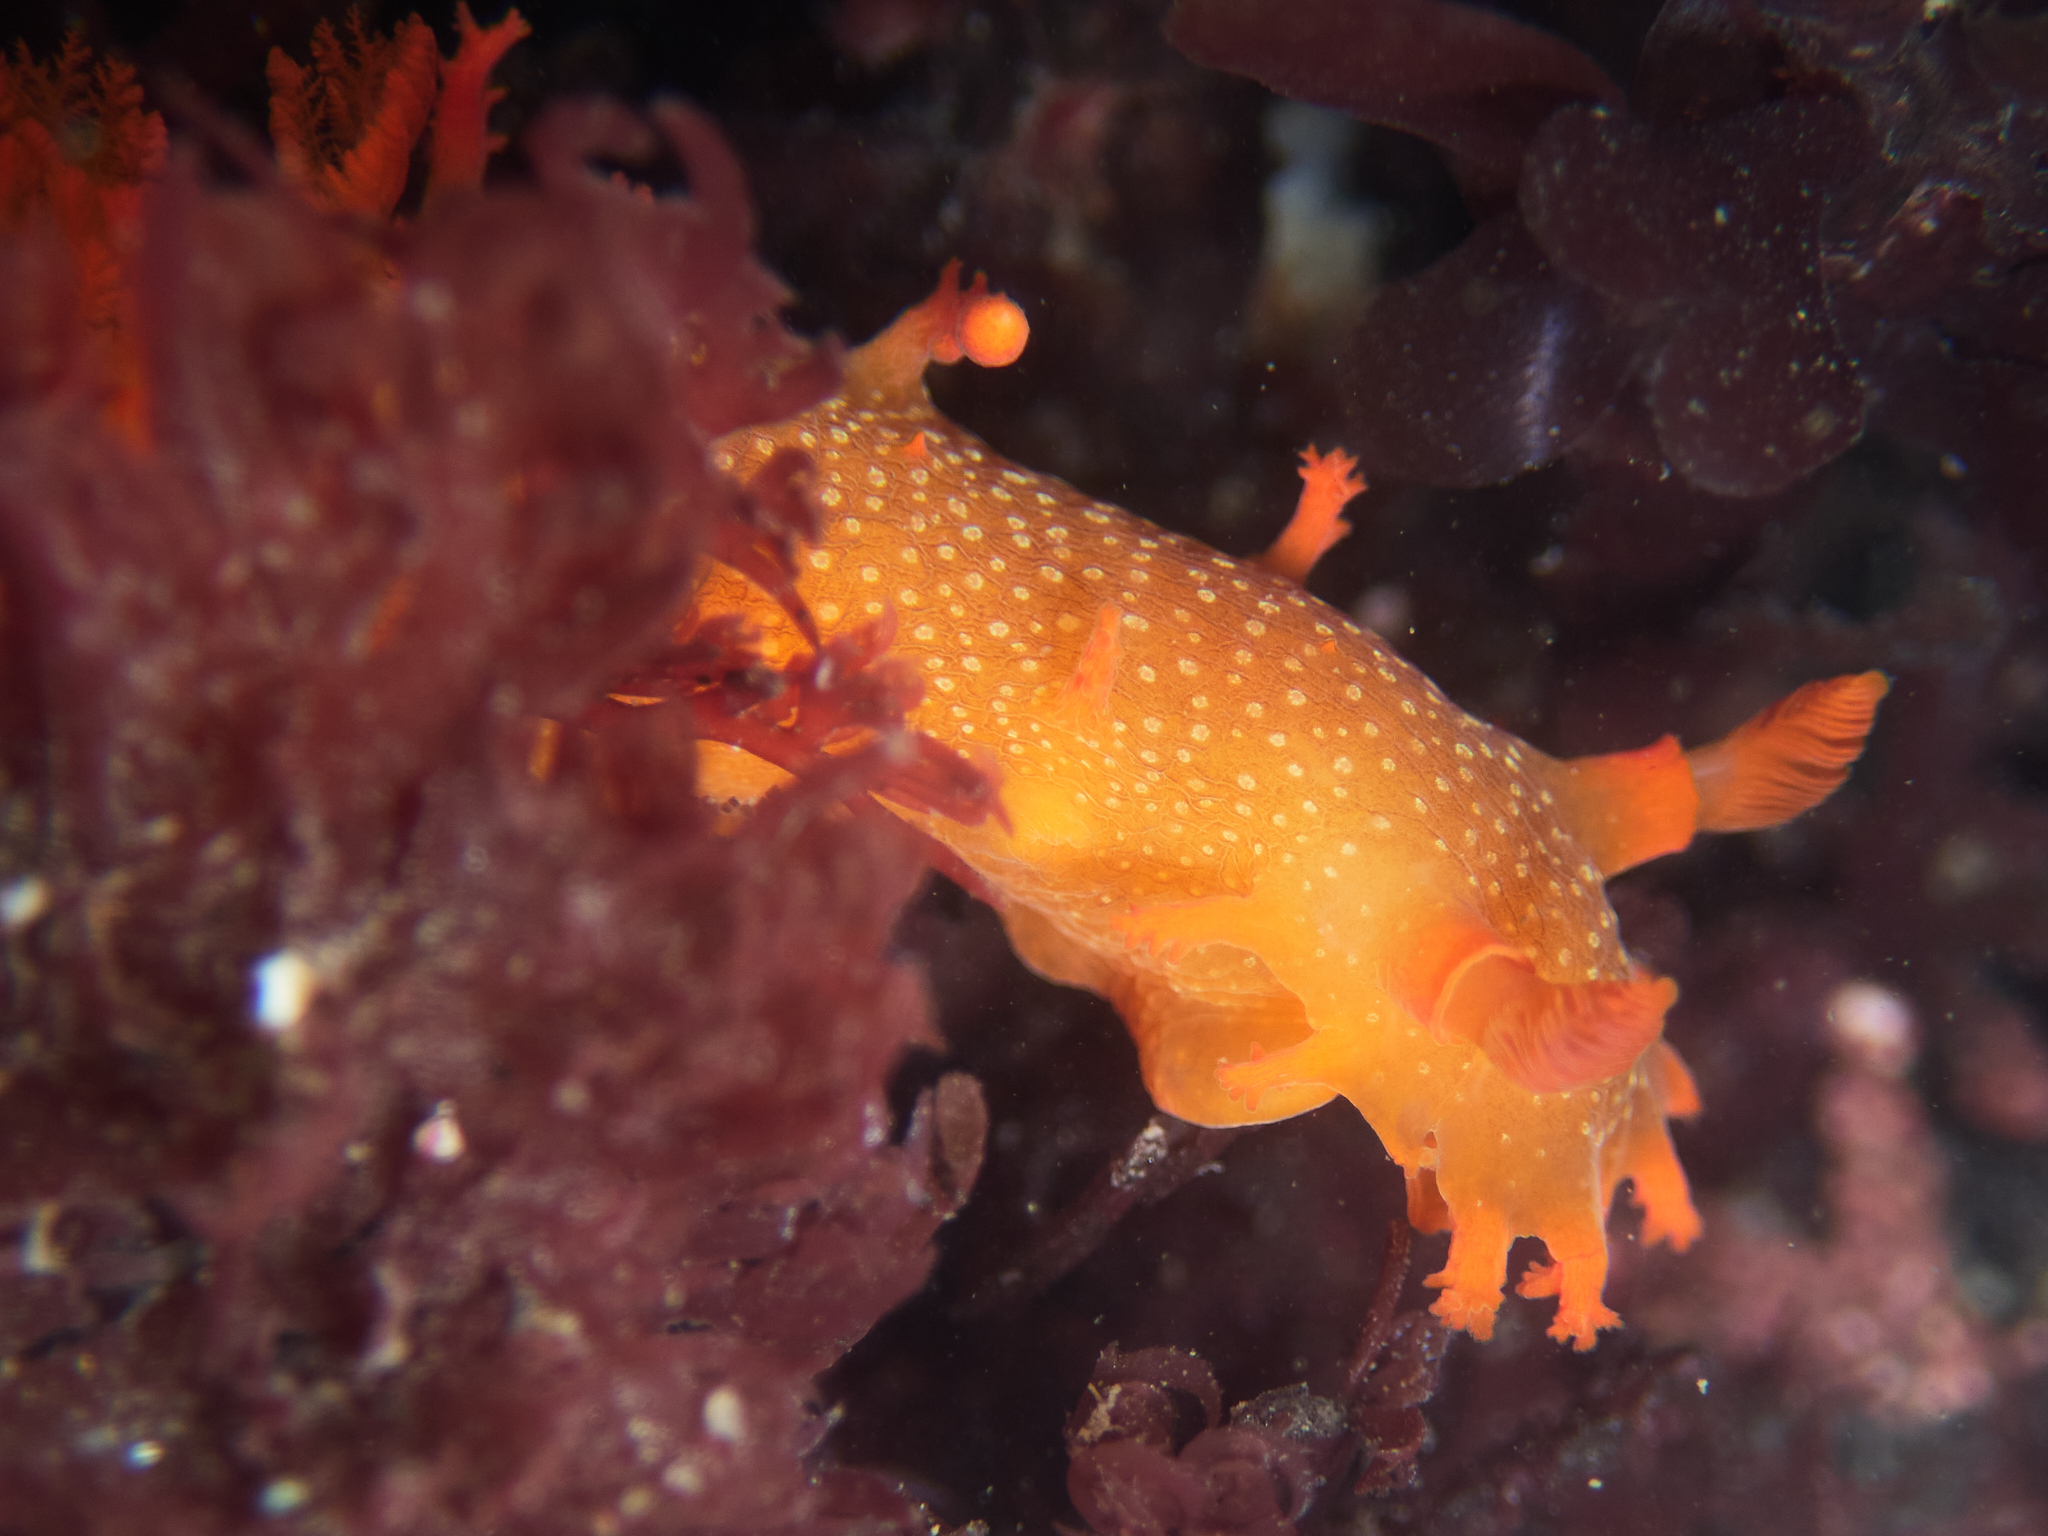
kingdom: Animalia
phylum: Mollusca
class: Gastropoda
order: Nudibranchia
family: Polyceridae
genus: Triopha
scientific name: Triopha maculata
